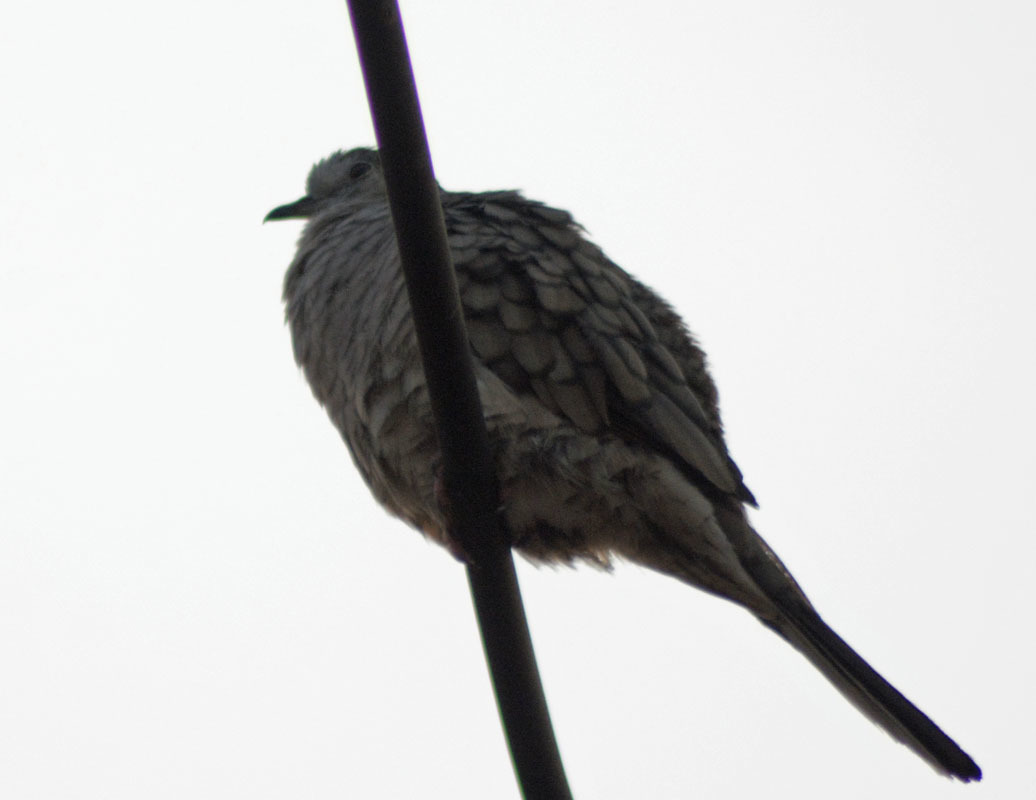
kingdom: Animalia
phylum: Chordata
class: Aves
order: Columbiformes
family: Columbidae
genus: Columbina
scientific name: Columbina inca
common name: Inca dove
